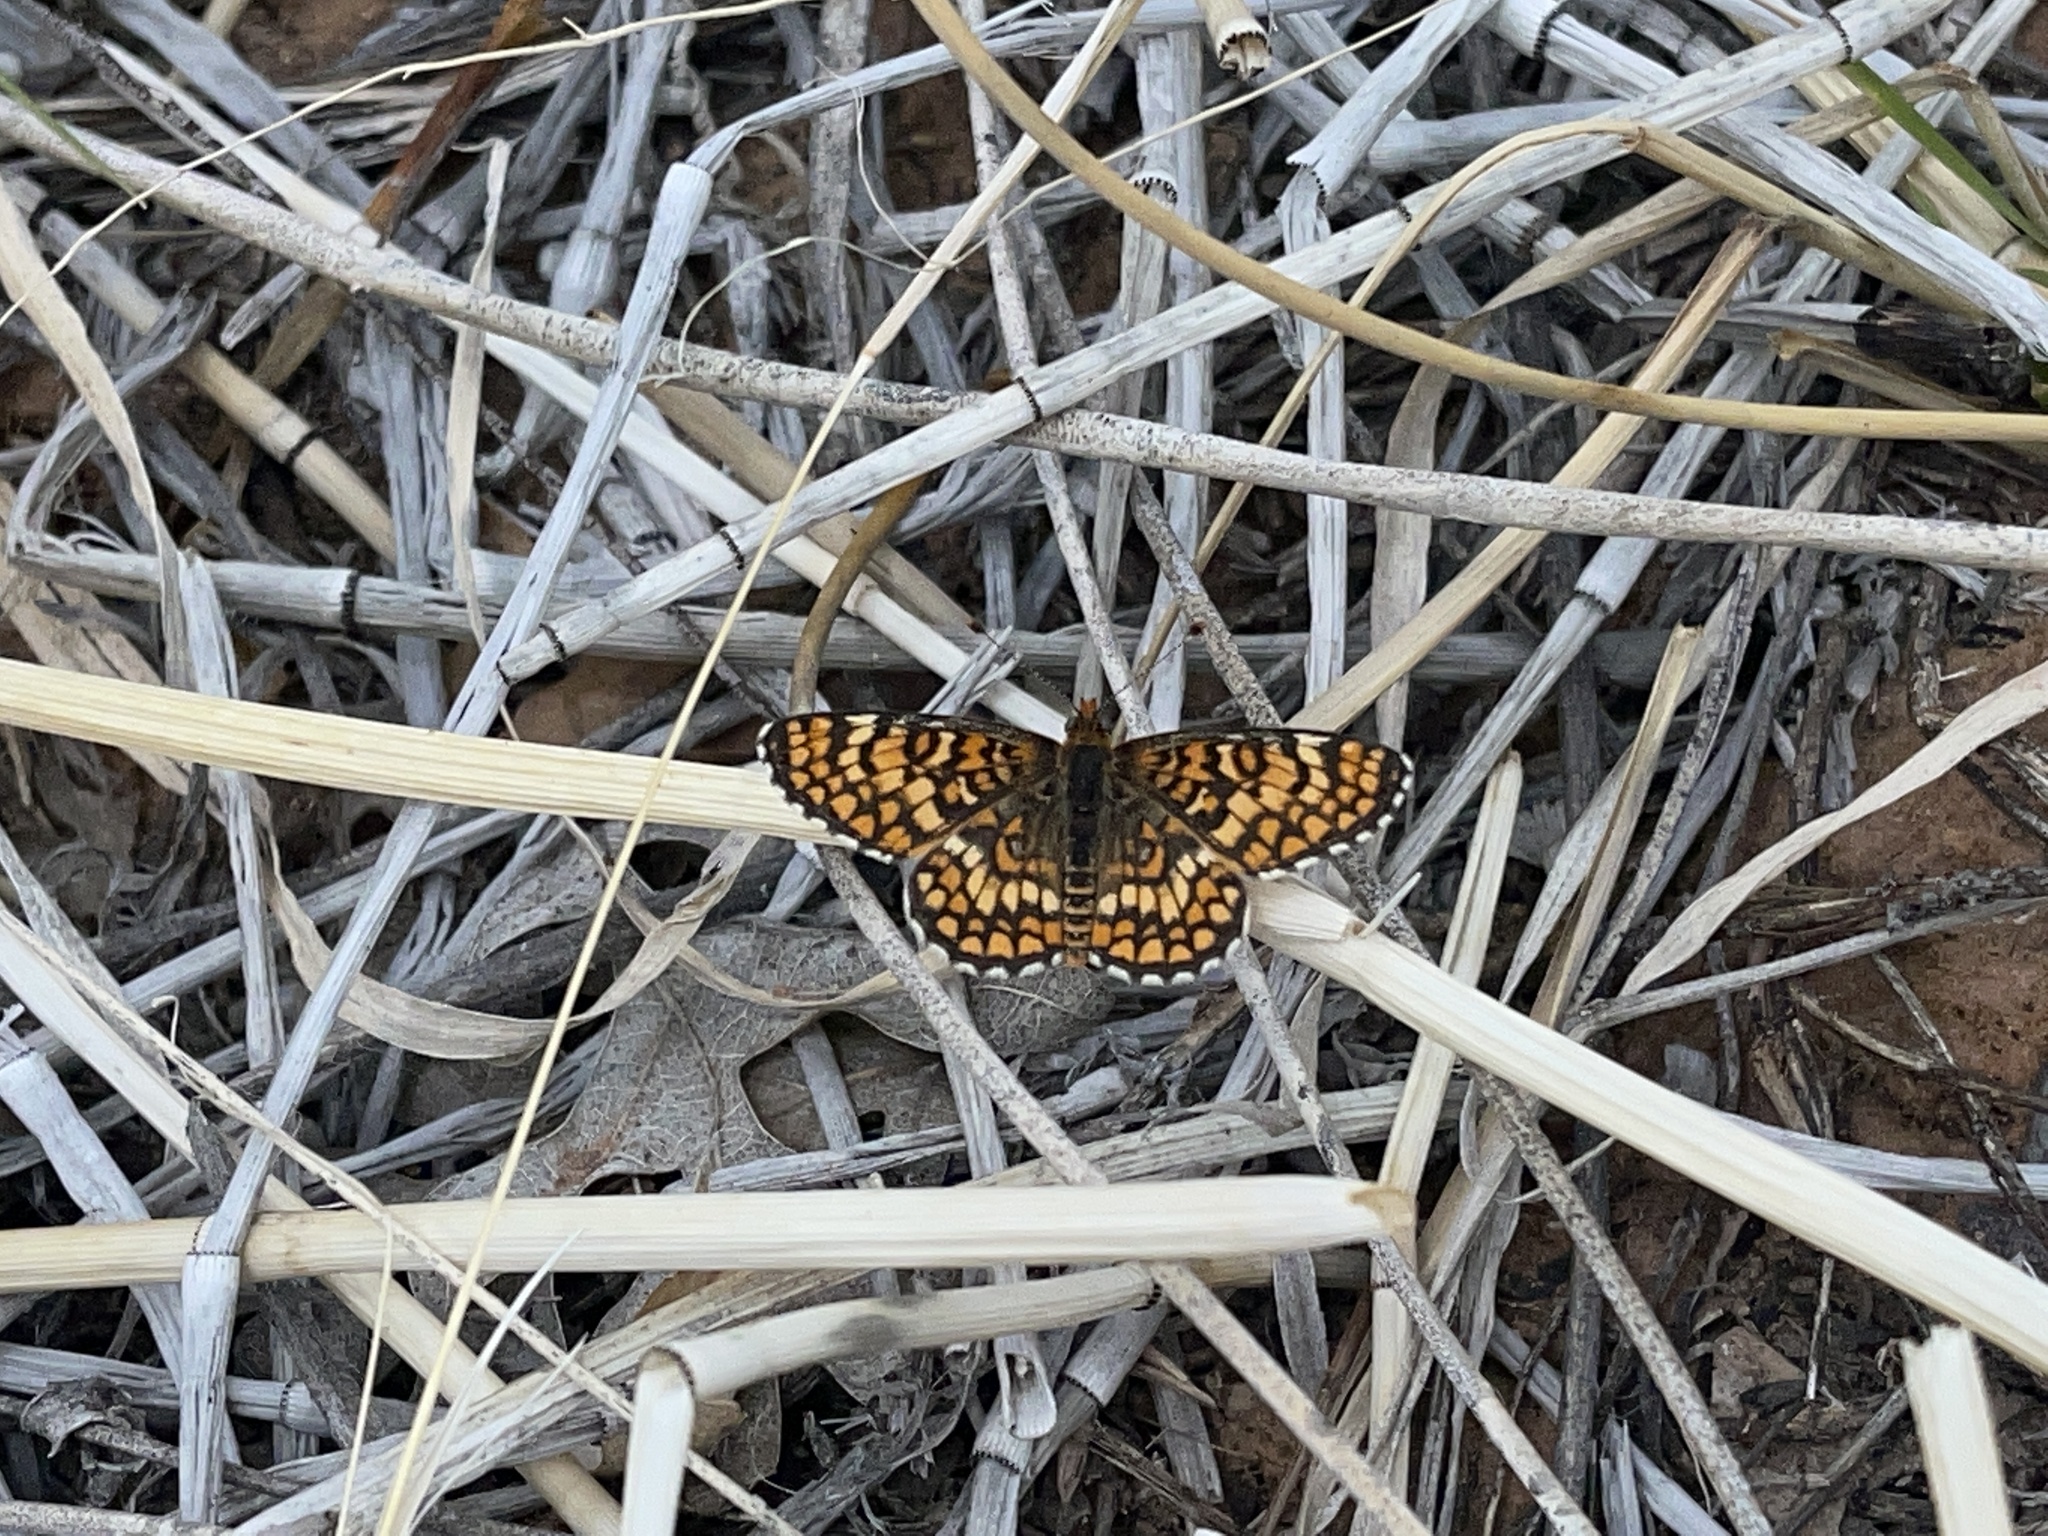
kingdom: Animalia
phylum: Arthropoda
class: Insecta
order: Lepidoptera
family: Nymphalidae
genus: Poladryas
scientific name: Poladryas minuta
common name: Dotted checkerspot
